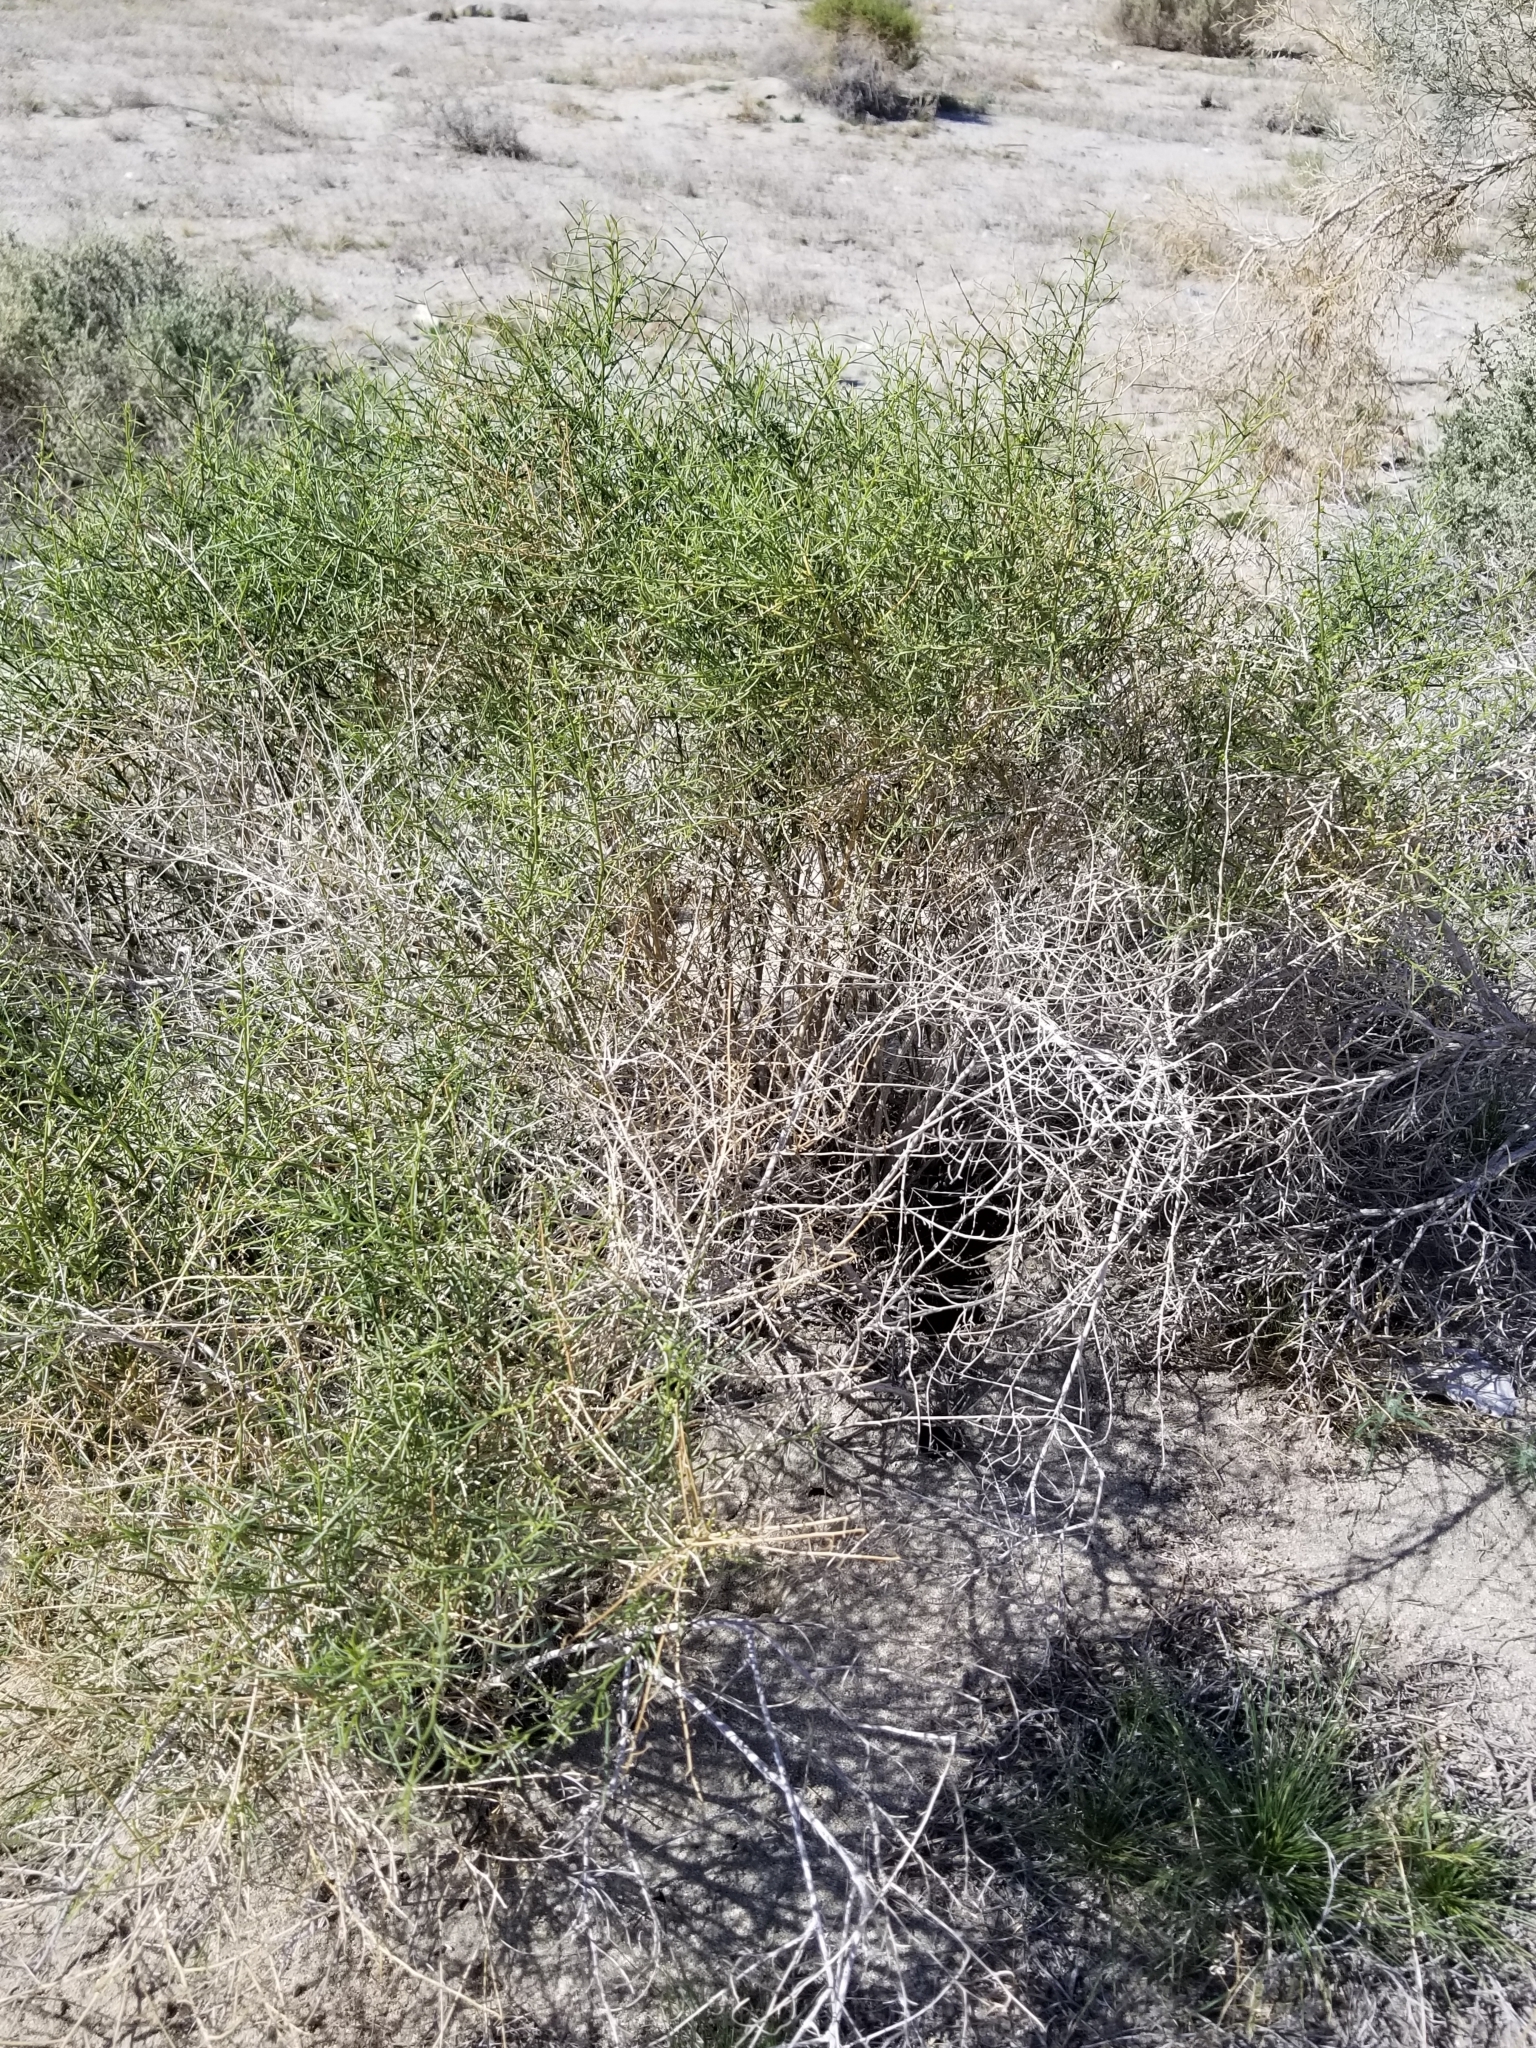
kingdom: Plantae
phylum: Tracheophyta
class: Magnoliopsida
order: Asterales
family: Asteraceae
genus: Ambrosia
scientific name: Ambrosia salsola
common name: Burrobrush
